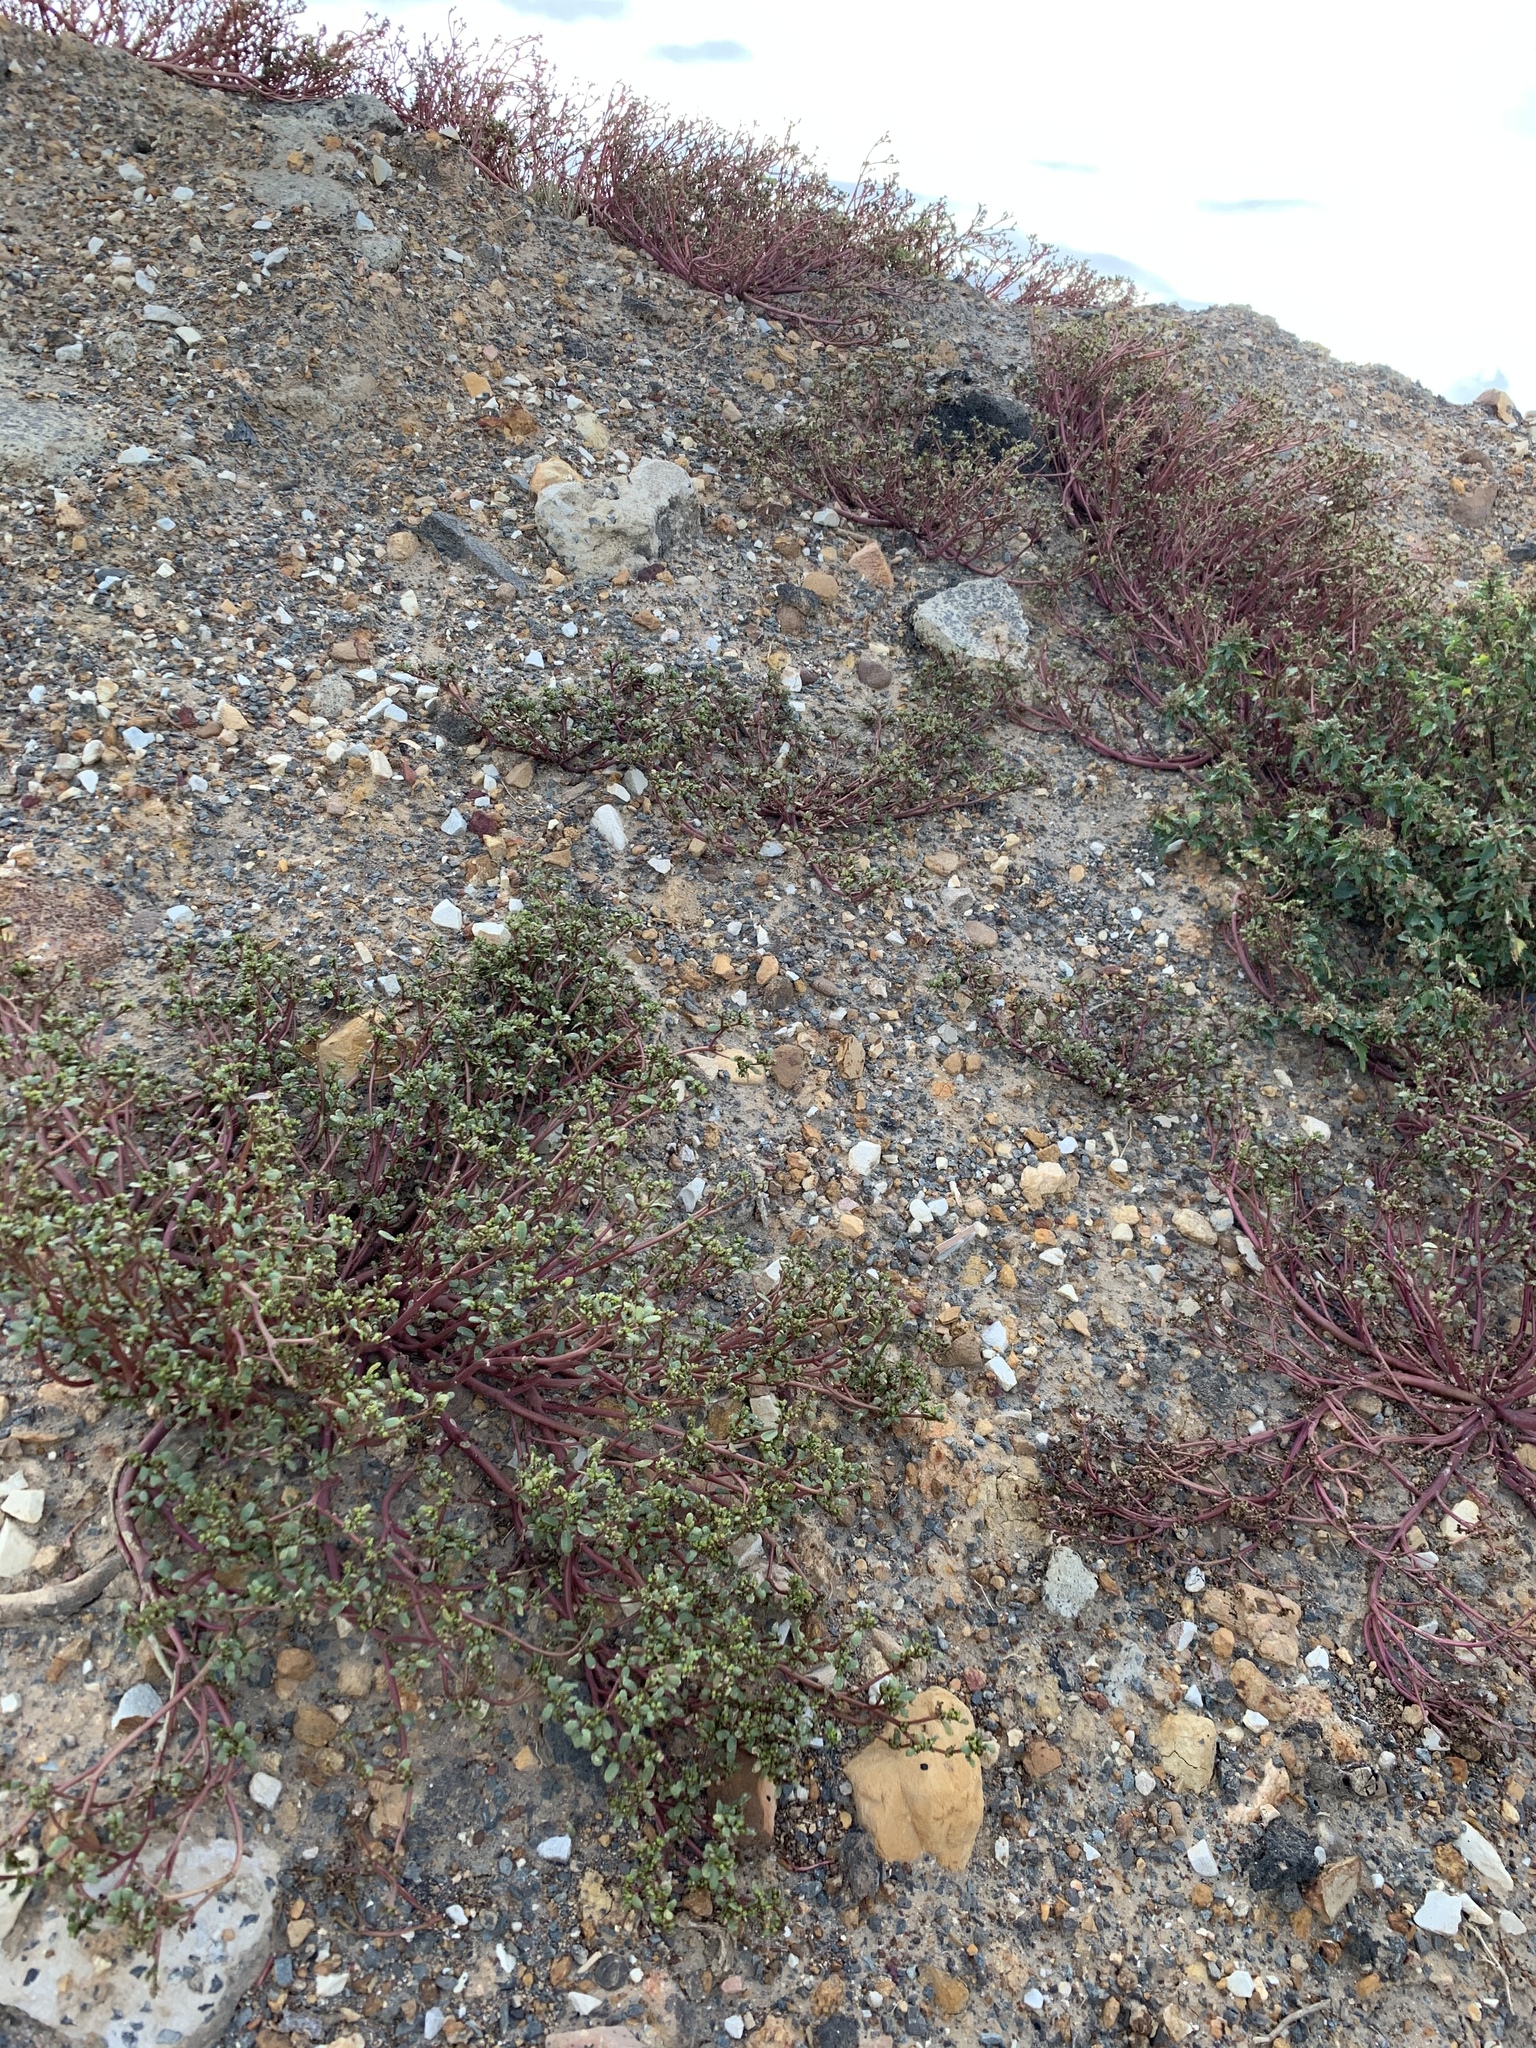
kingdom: Plantae
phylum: Tracheophyta
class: Magnoliopsida
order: Caryophyllales
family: Portulacaceae
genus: Portulaca
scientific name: Portulaca oleracea
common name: Common purslane
